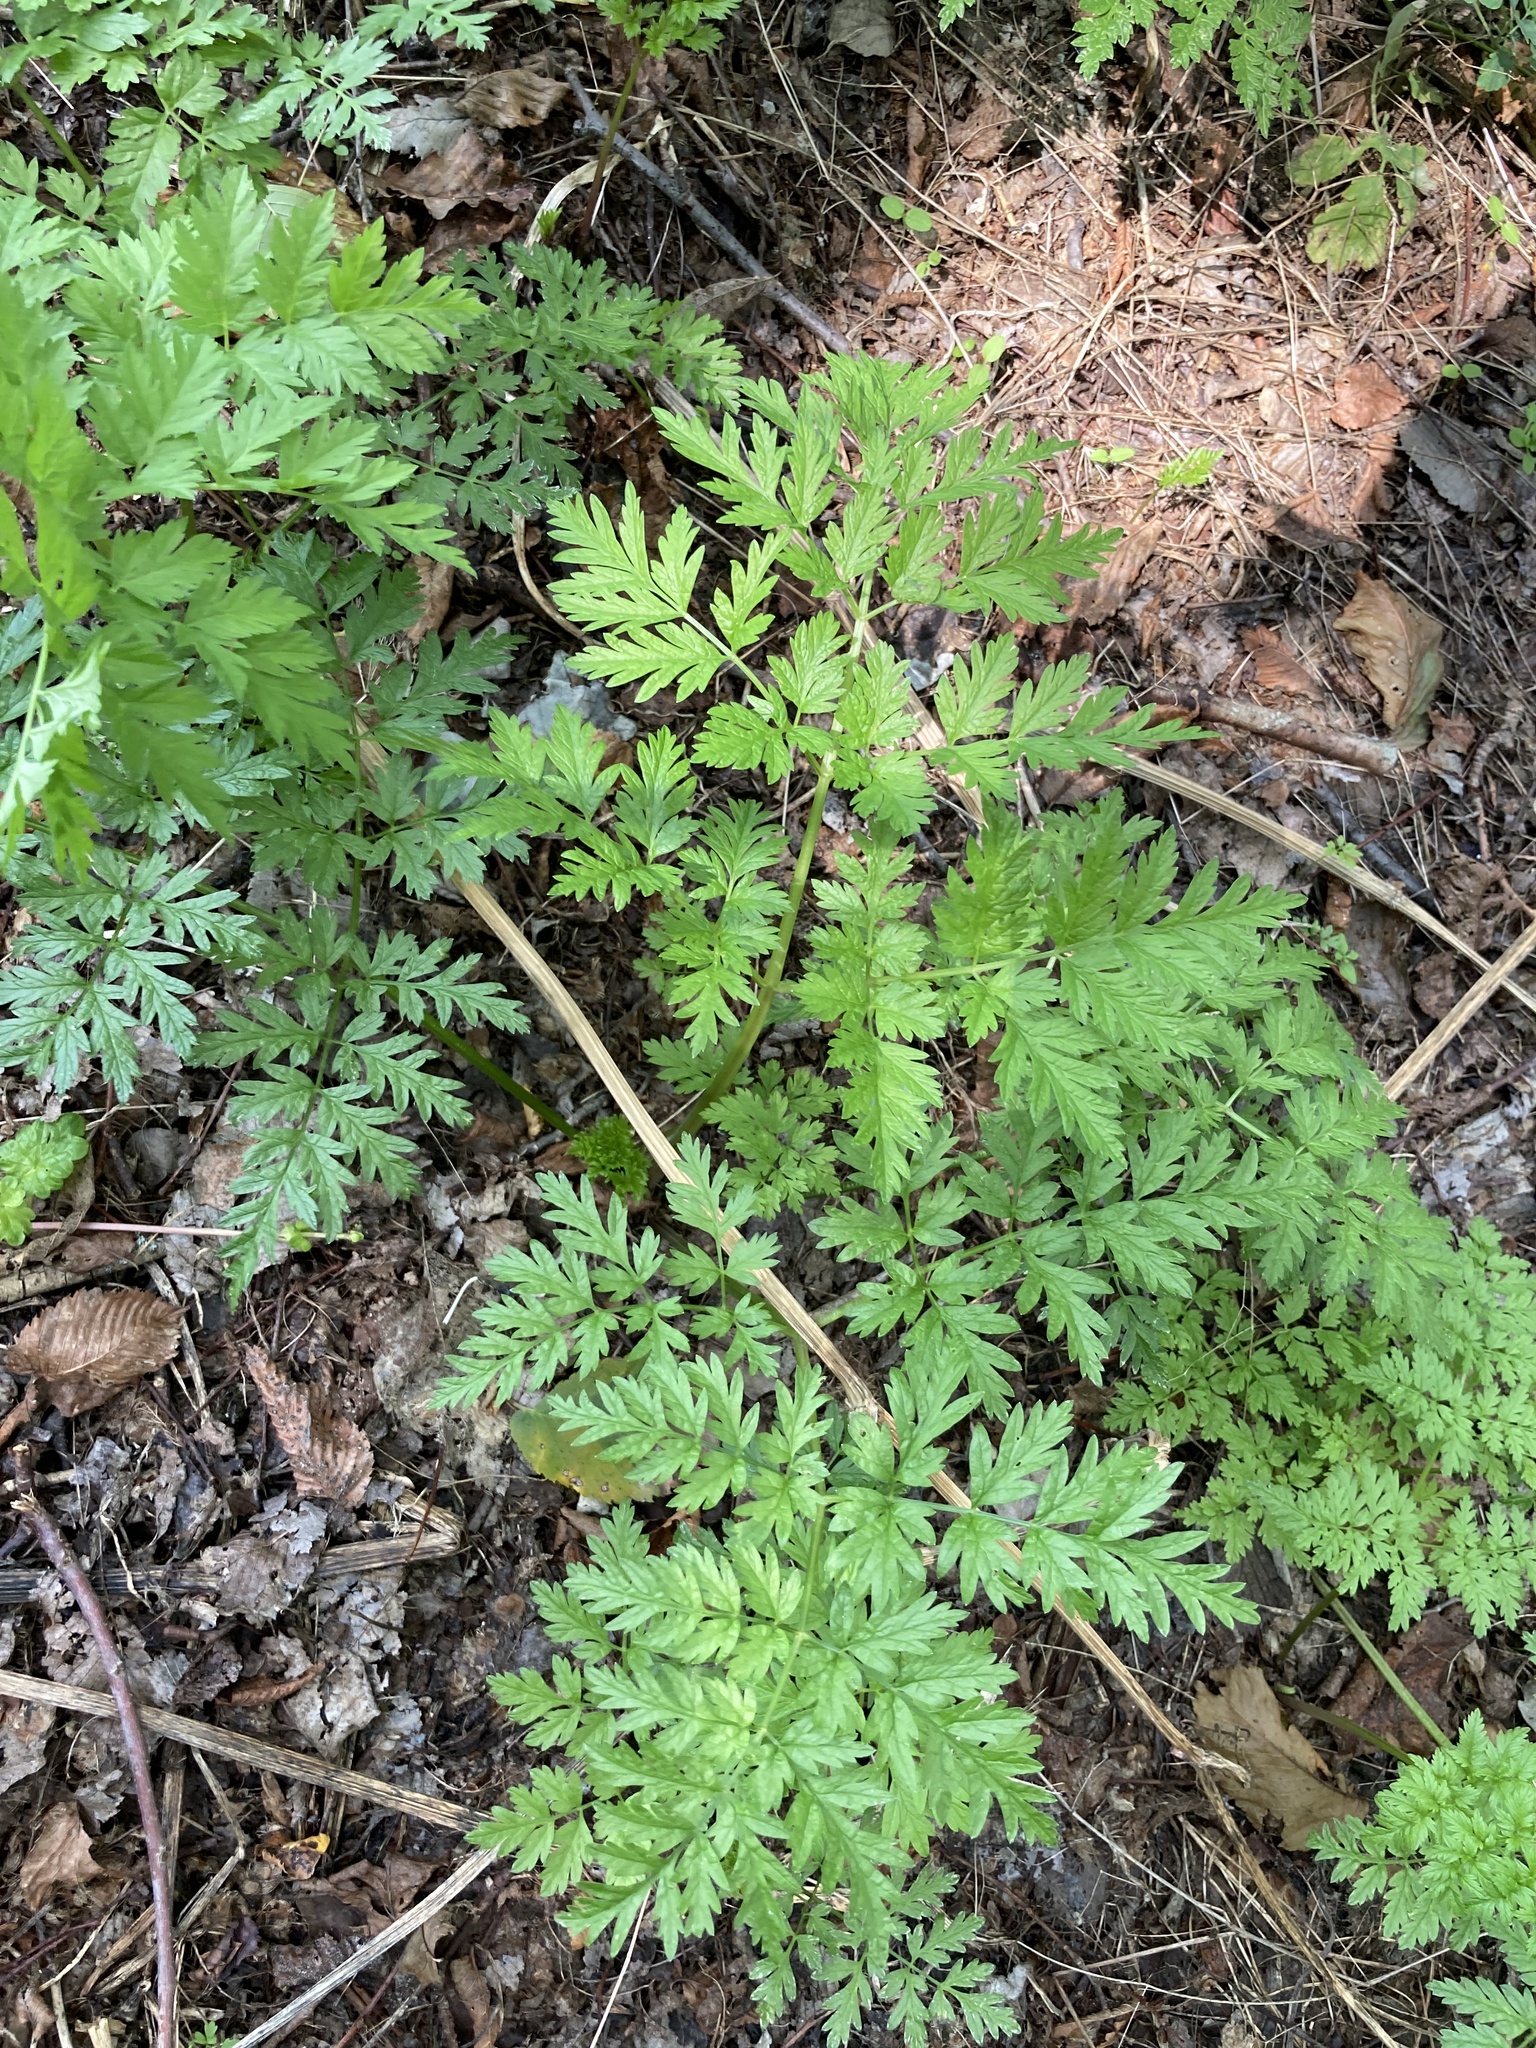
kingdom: Plantae
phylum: Tracheophyta
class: Magnoliopsida
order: Apiales
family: Apiaceae
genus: Anthriscus
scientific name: Anthriscus sylvestris
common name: Cow parsley
